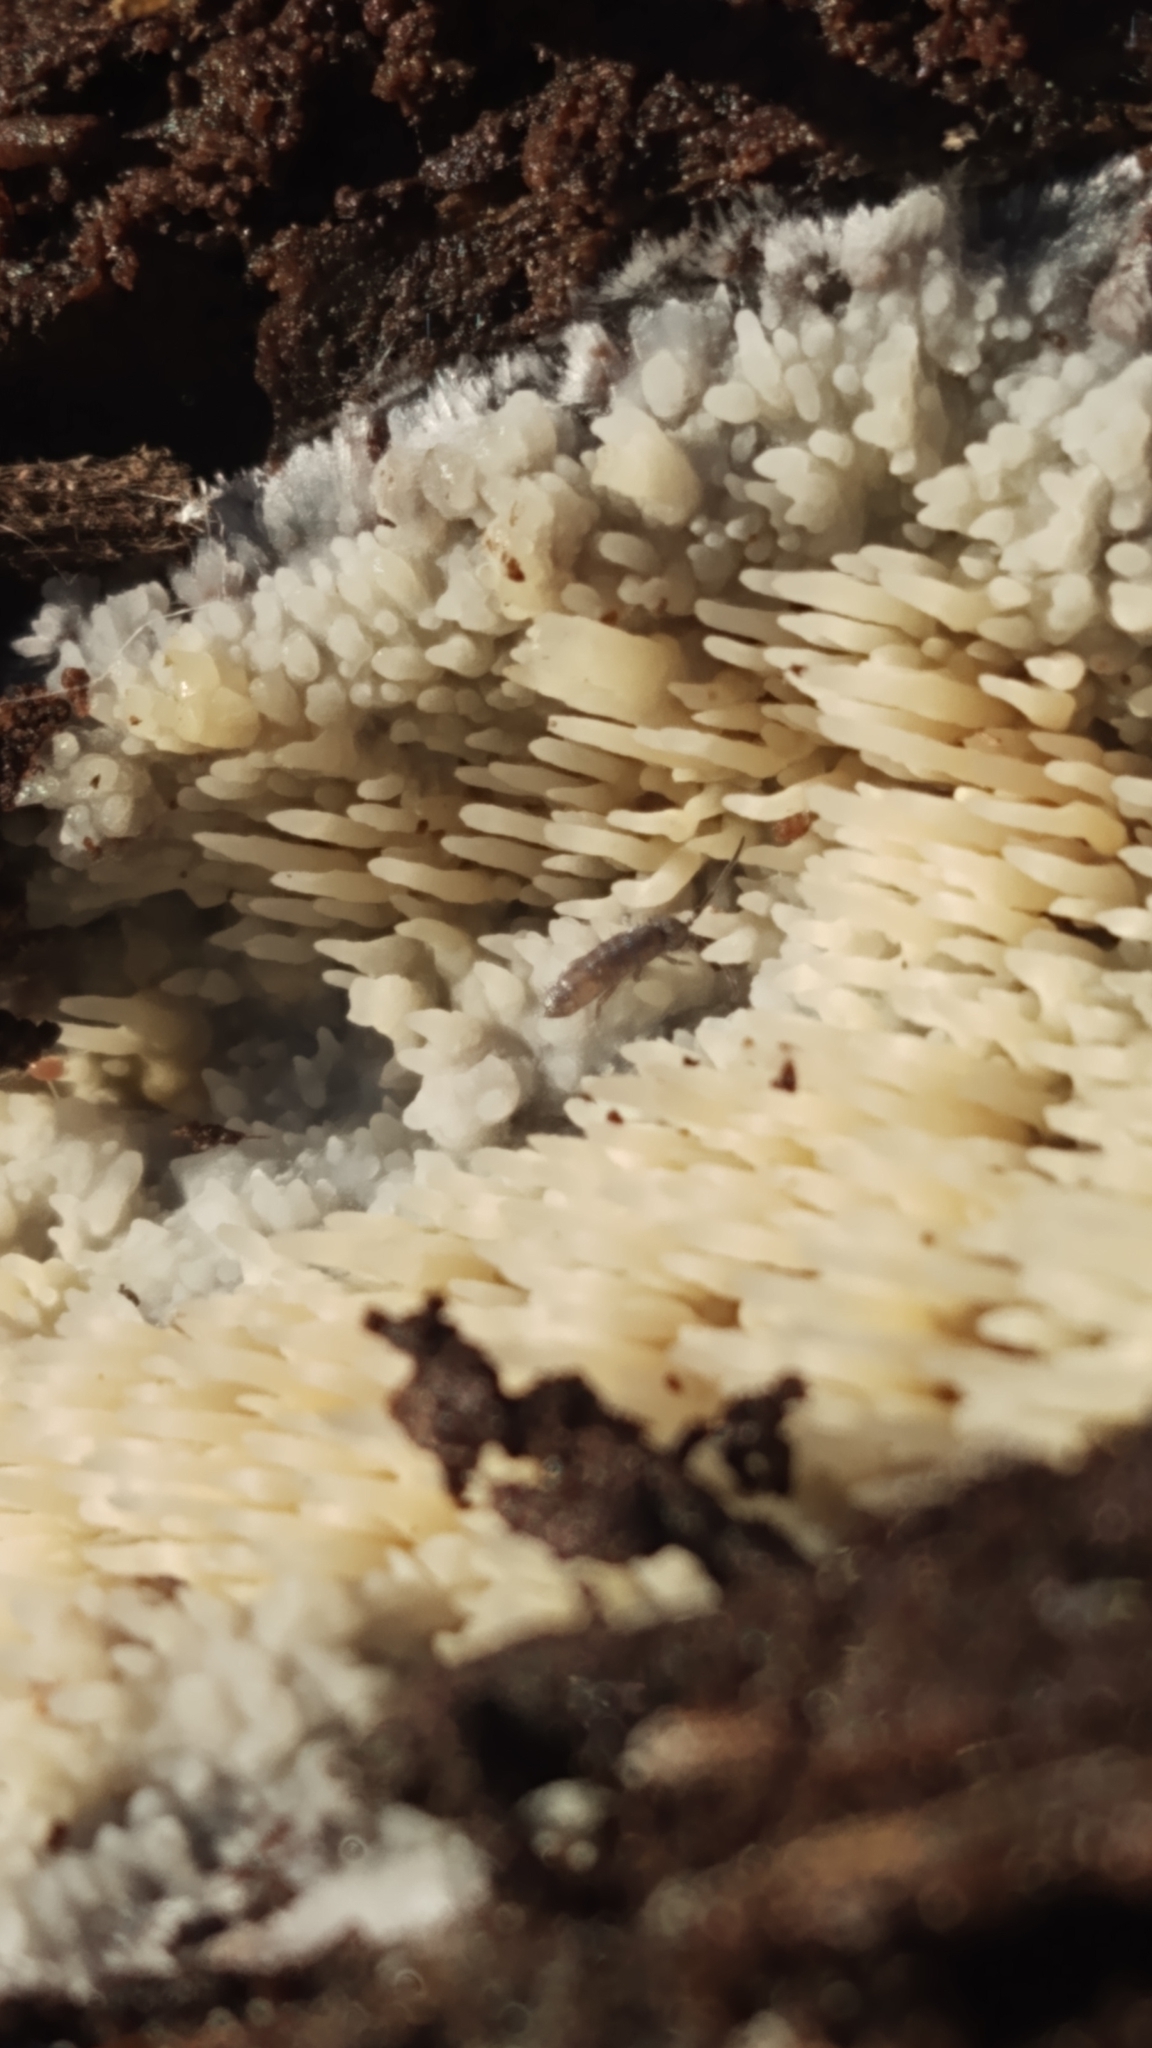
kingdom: Fungi
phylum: Basidiomycota
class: Agaricomycetes
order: Agaricales
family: Radulomycetaceae
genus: Radulomyces
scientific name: Radulomyces copelandii
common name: Asian beauty
